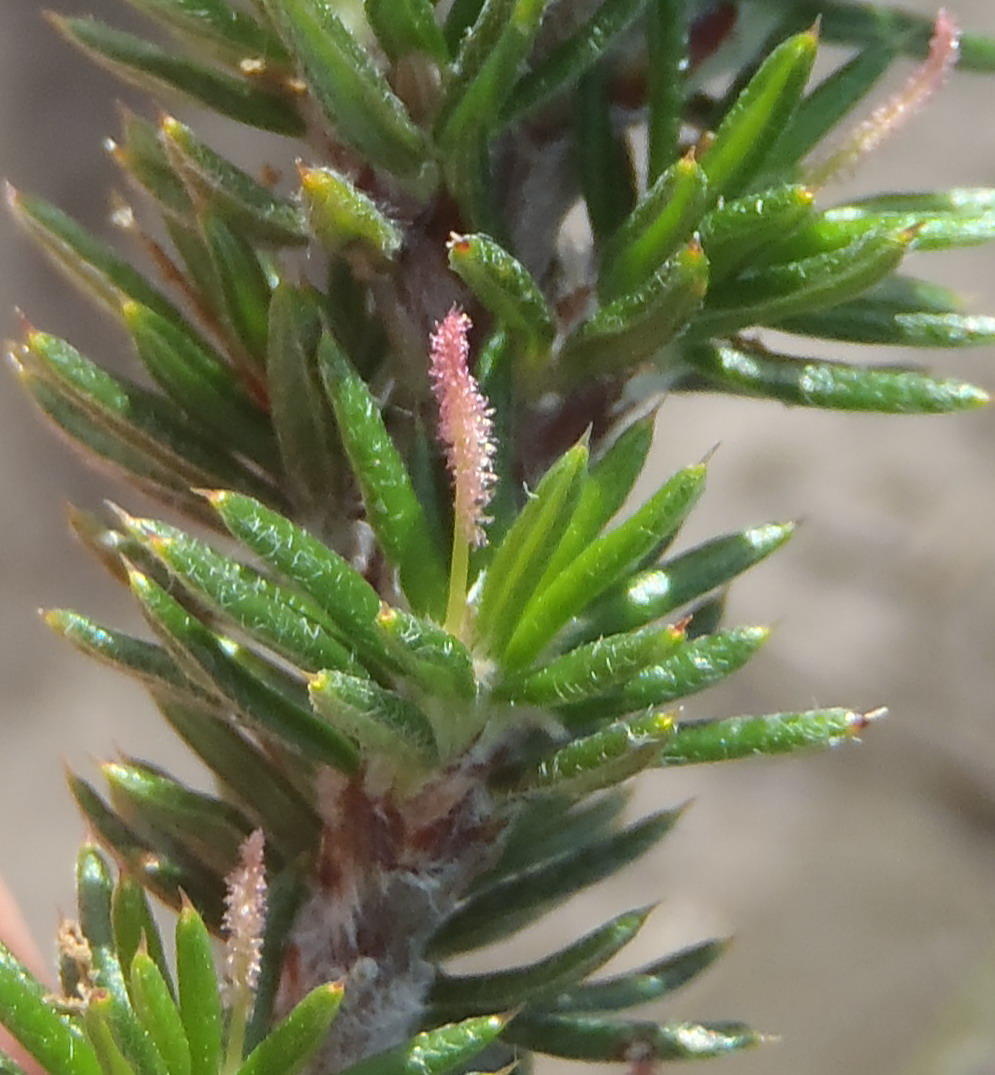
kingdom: Plantae
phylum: Tracheophyta
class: Magnoliopsida
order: Rosales
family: Rosaceae
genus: Cliffortia
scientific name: Cliffortia stricta
